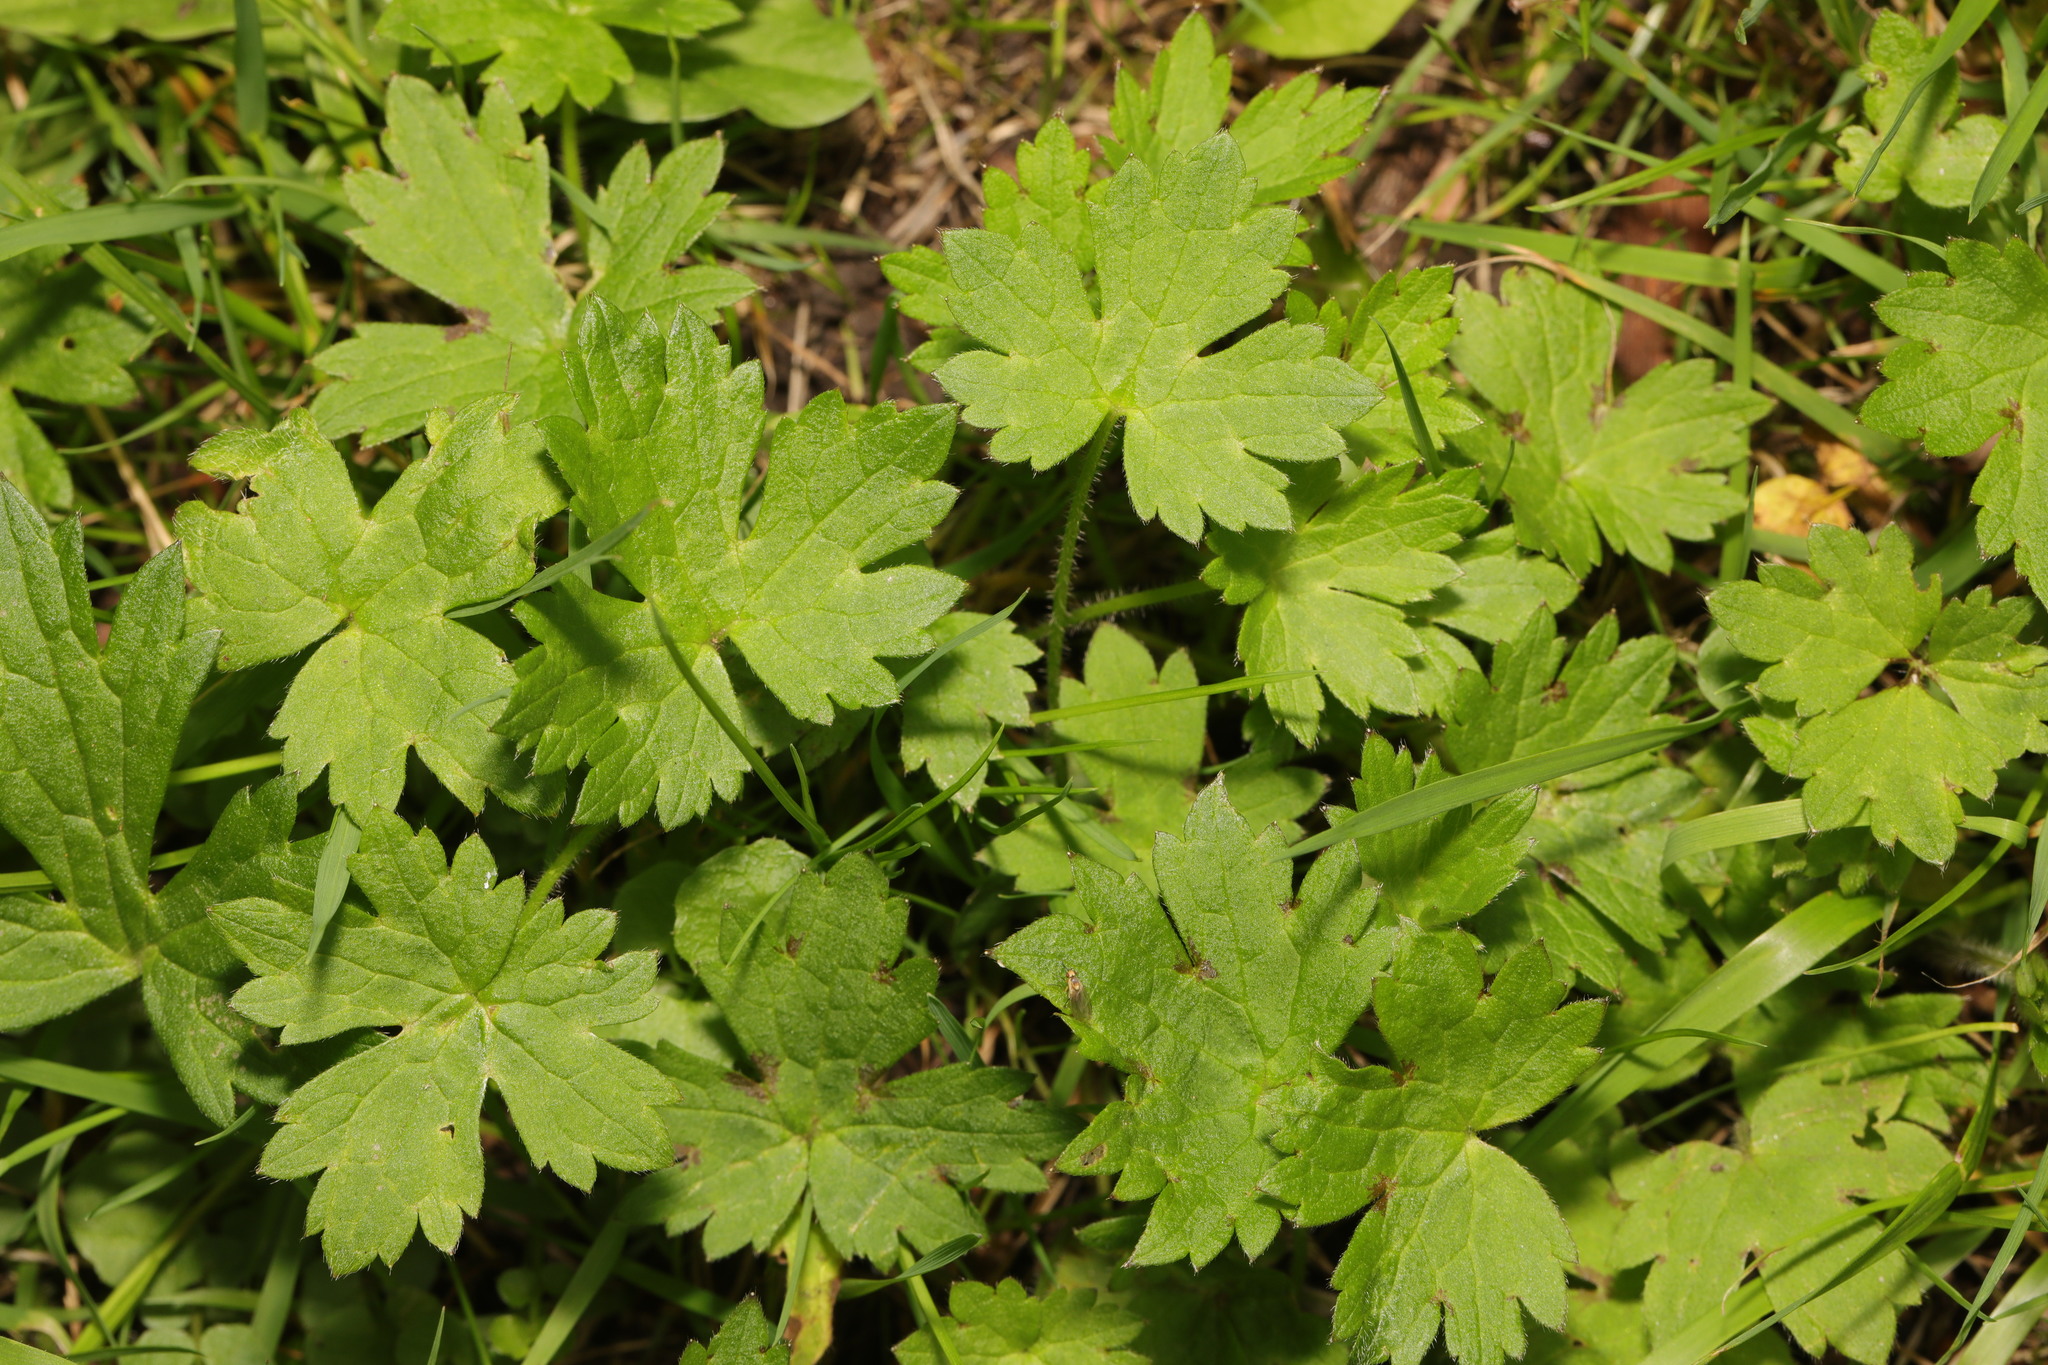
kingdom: Plantae
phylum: Tracheophyta
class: Magnoliopsida
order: Ranunculales
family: Ranunculaceae
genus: Ranunculus
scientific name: Ranunculus repens
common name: Creeping buttercup
